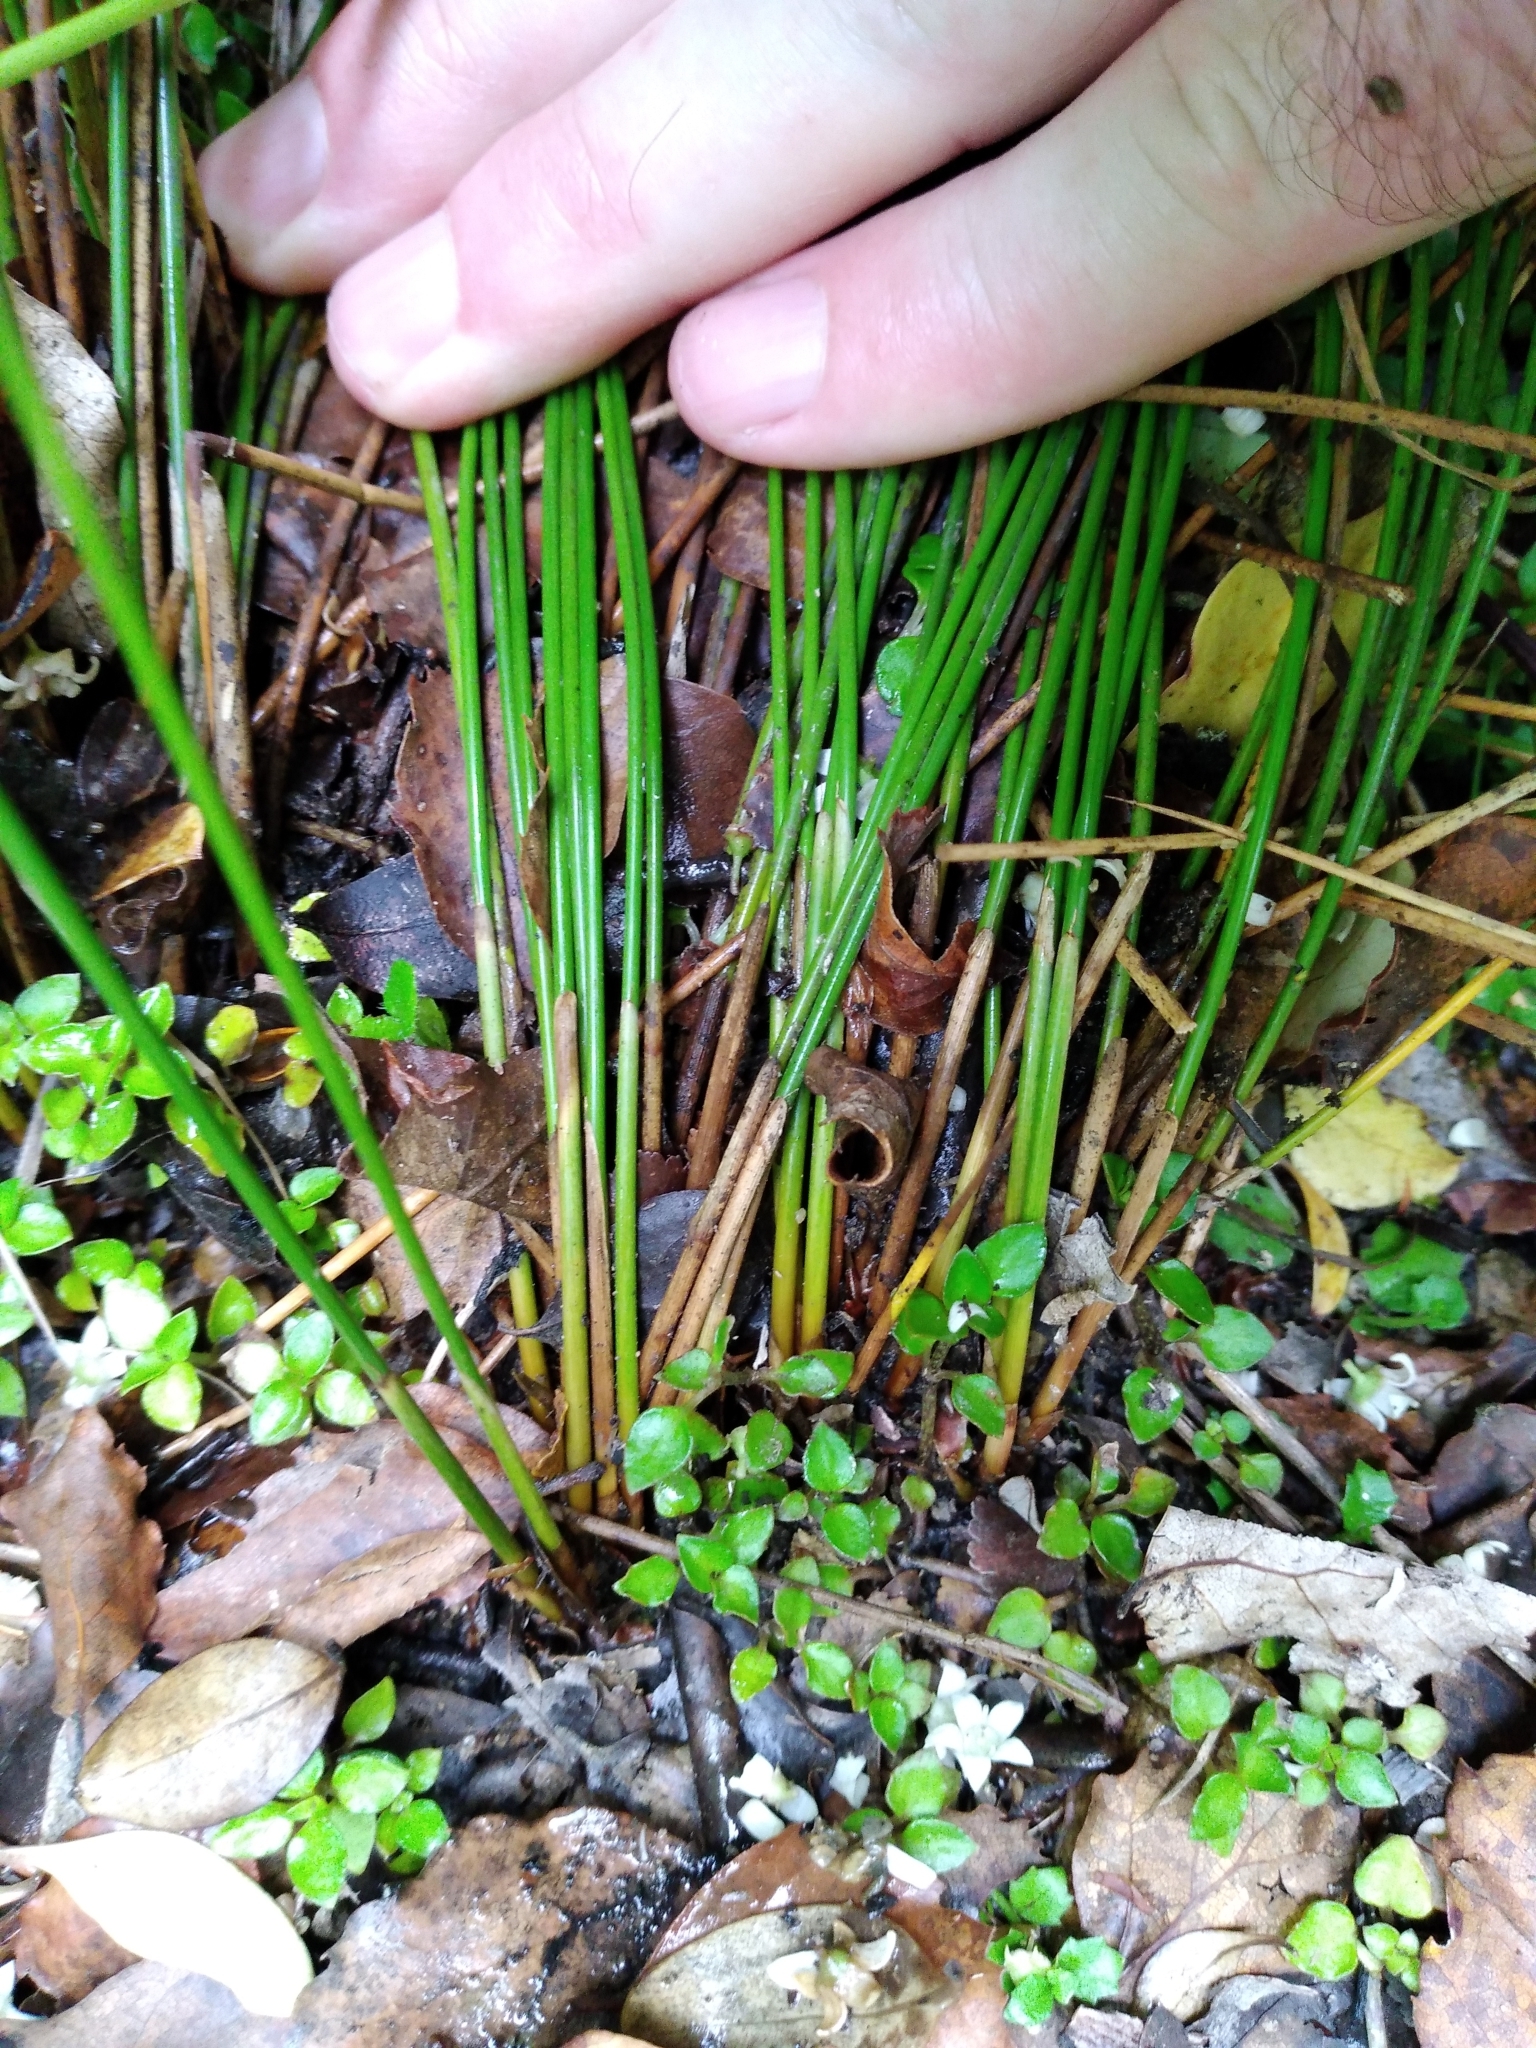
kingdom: Plantae
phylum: Tracheophyta
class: Liliopsida
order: Poales
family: Juncaceae
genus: Juncus
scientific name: Juncus distegus
